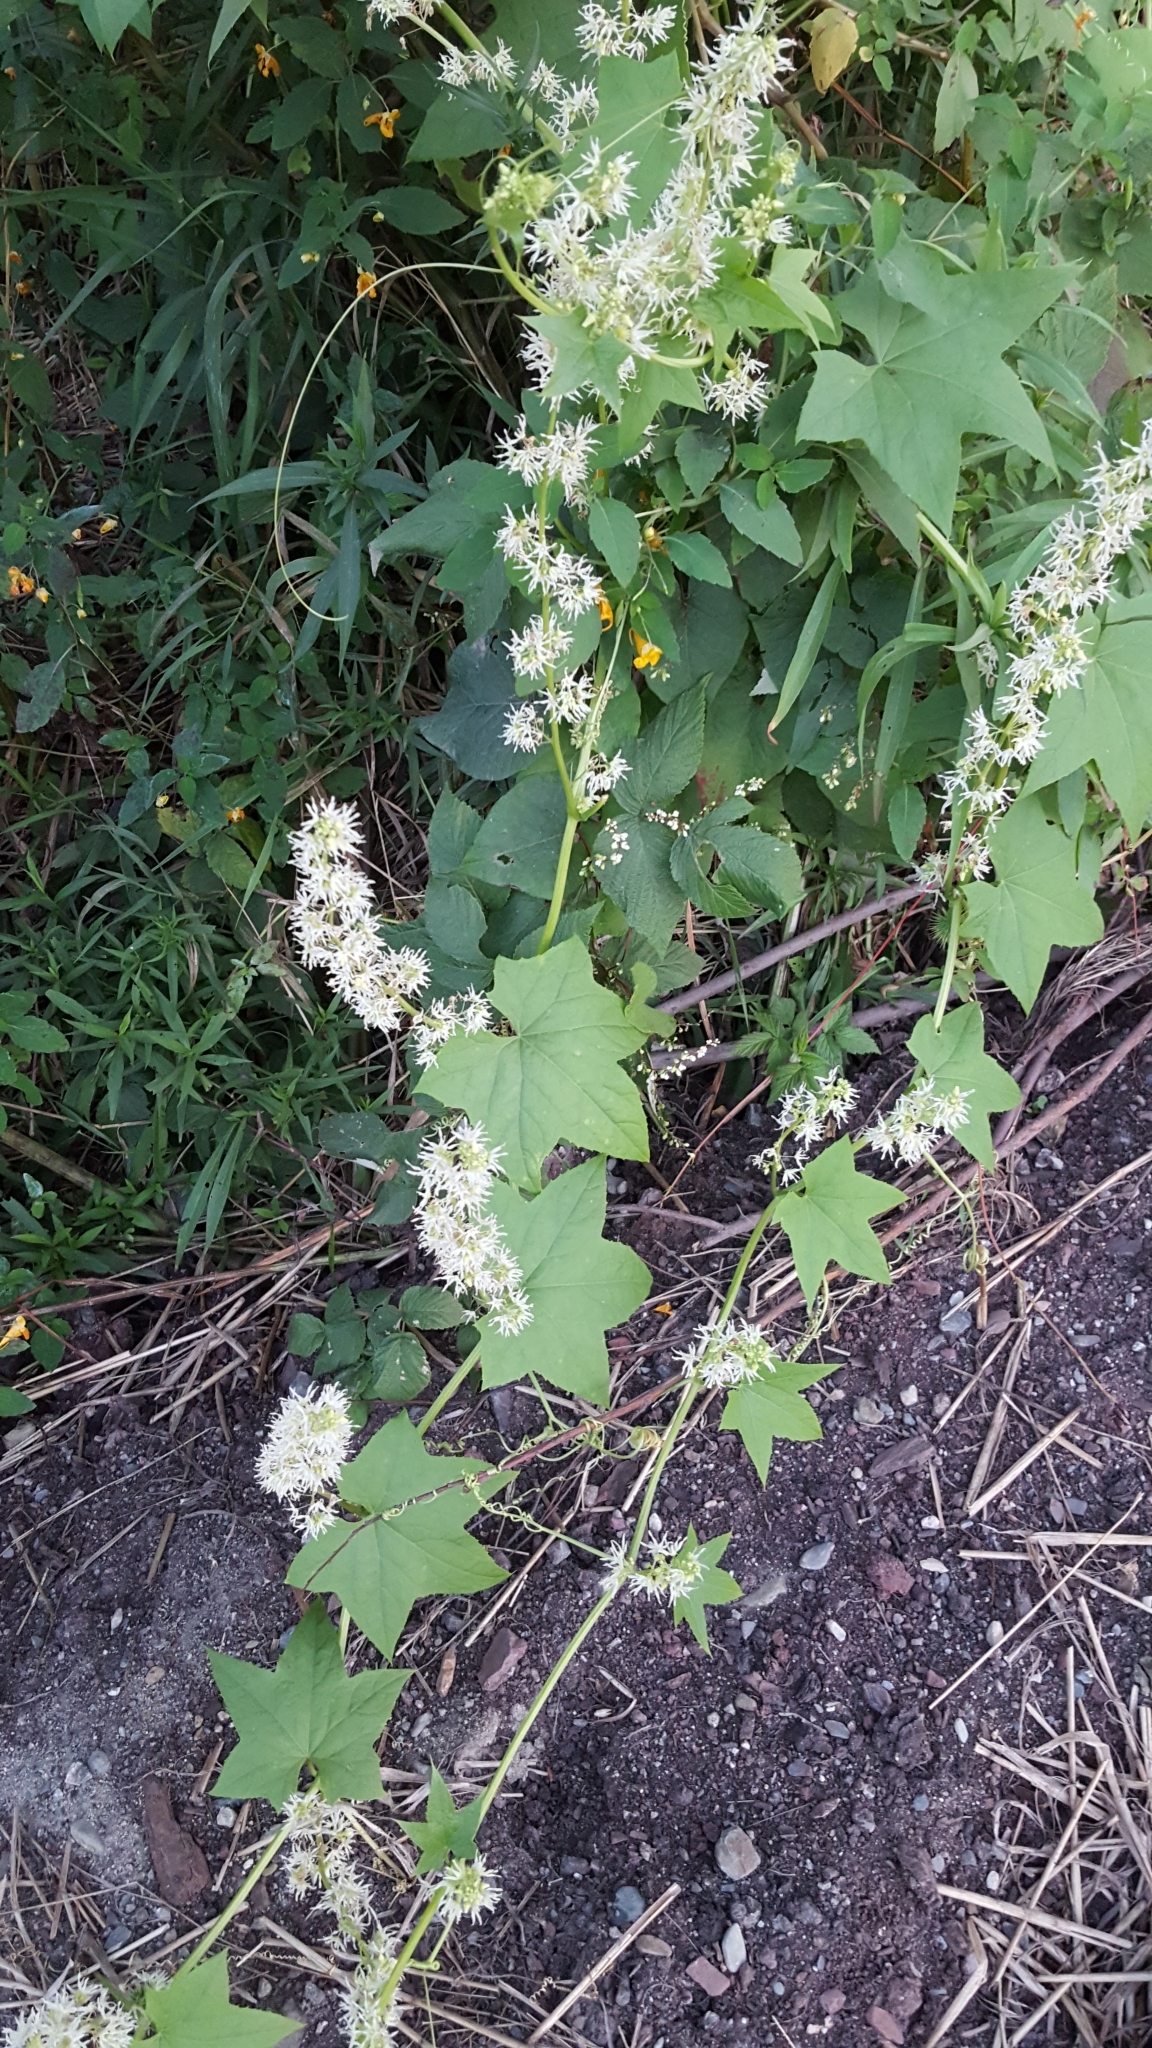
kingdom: Plantae
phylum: Tracheophyta
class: Magnoliopsida
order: Cucurbitales
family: Cucurbitaceae
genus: Echinocystis
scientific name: Echinocystis lobata
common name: Wild cucumber
